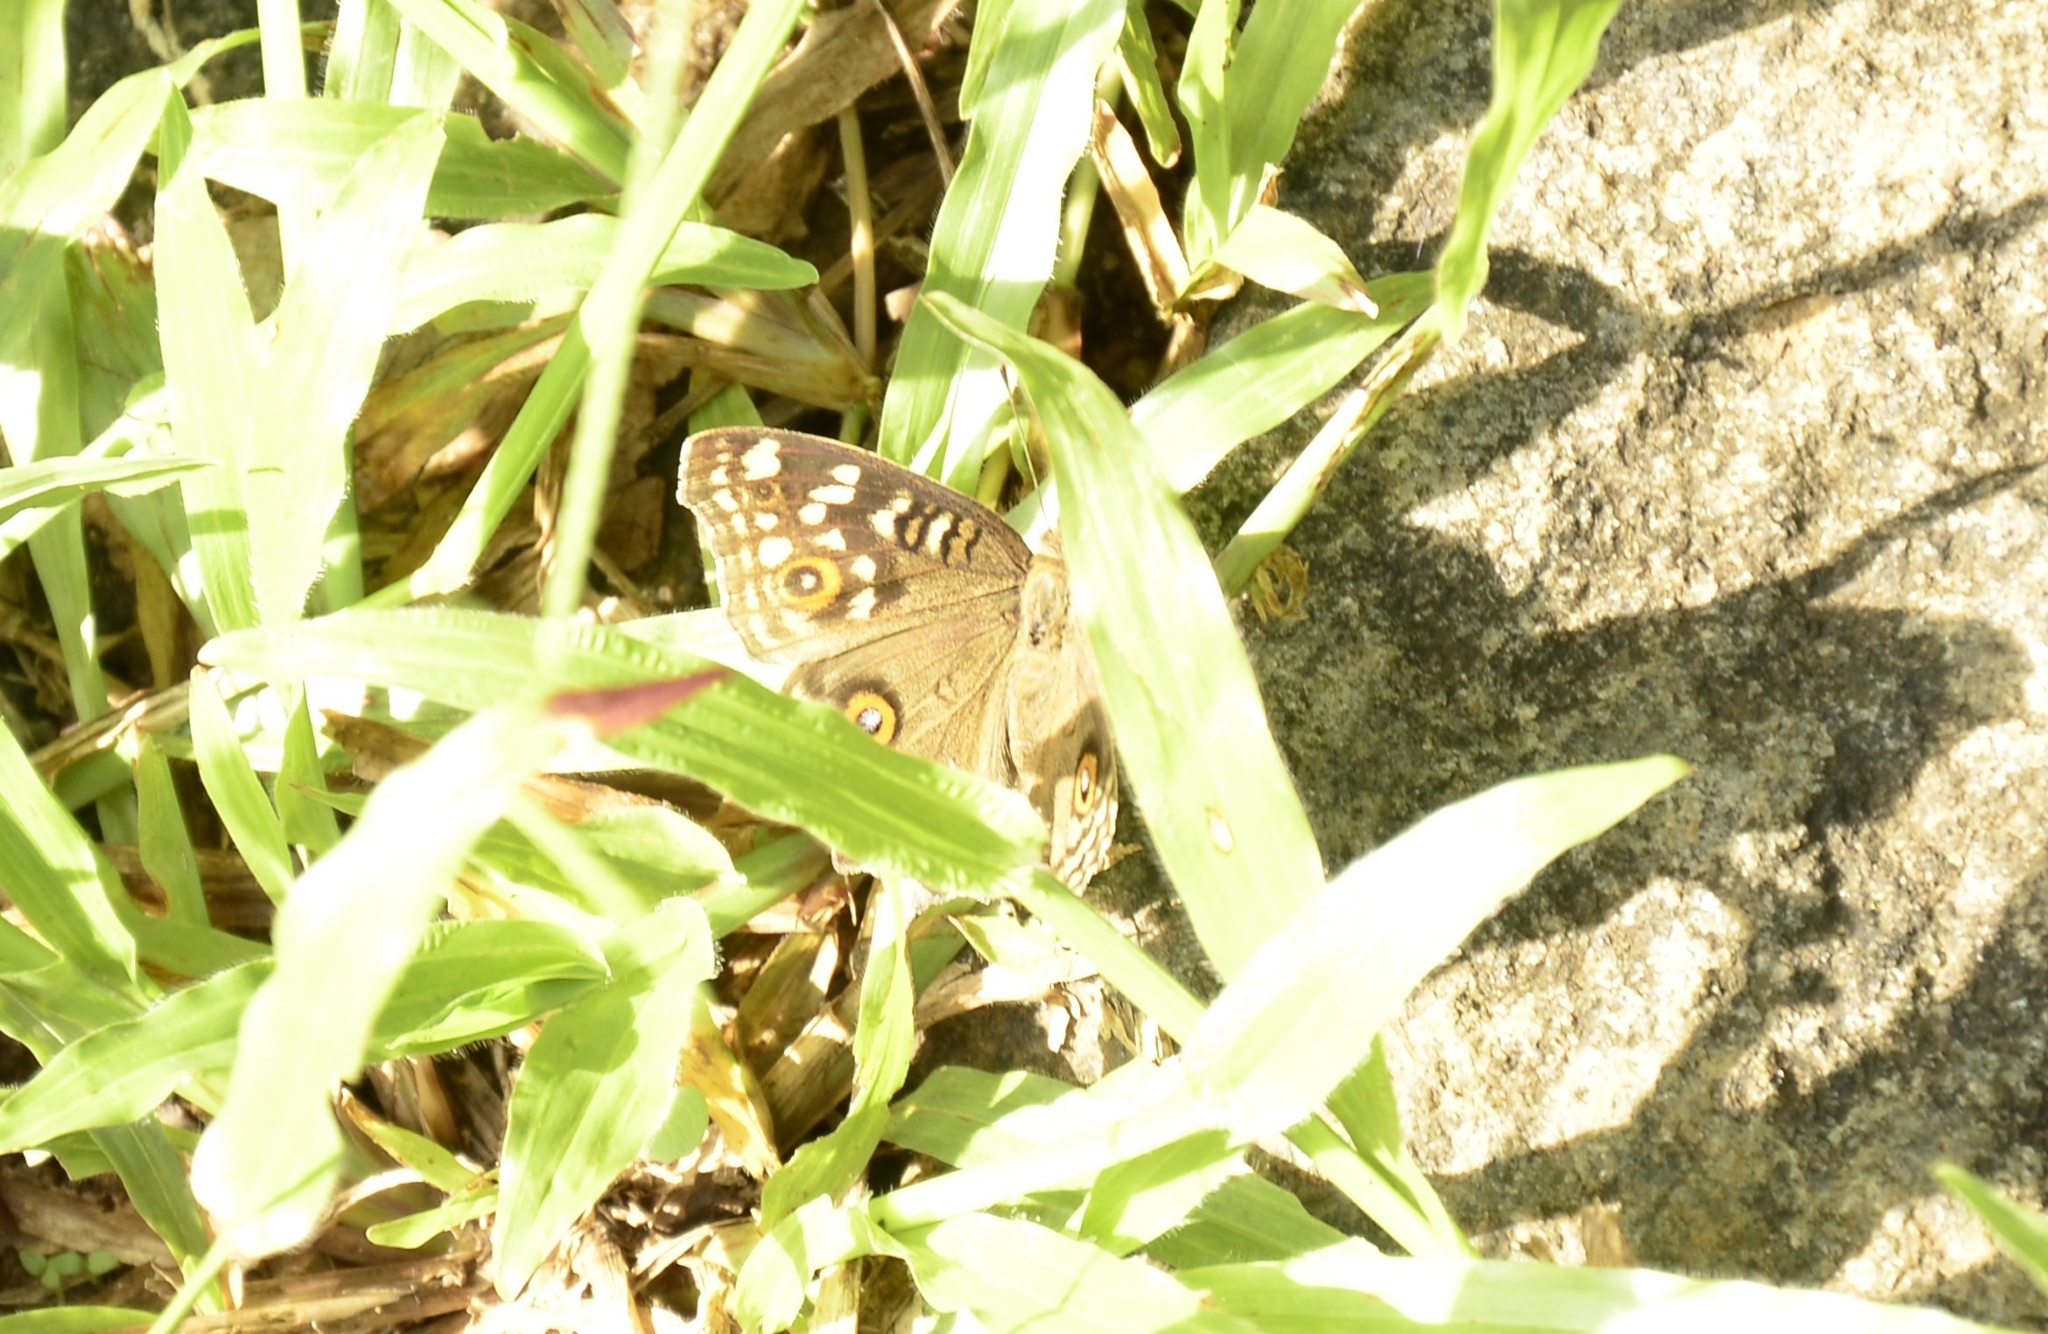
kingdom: Animalia
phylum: Arthropoda
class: Insecta
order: Lepidoptera
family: Nymphalidae
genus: Junonia
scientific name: Junonia lemonias
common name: Lemon pansy
